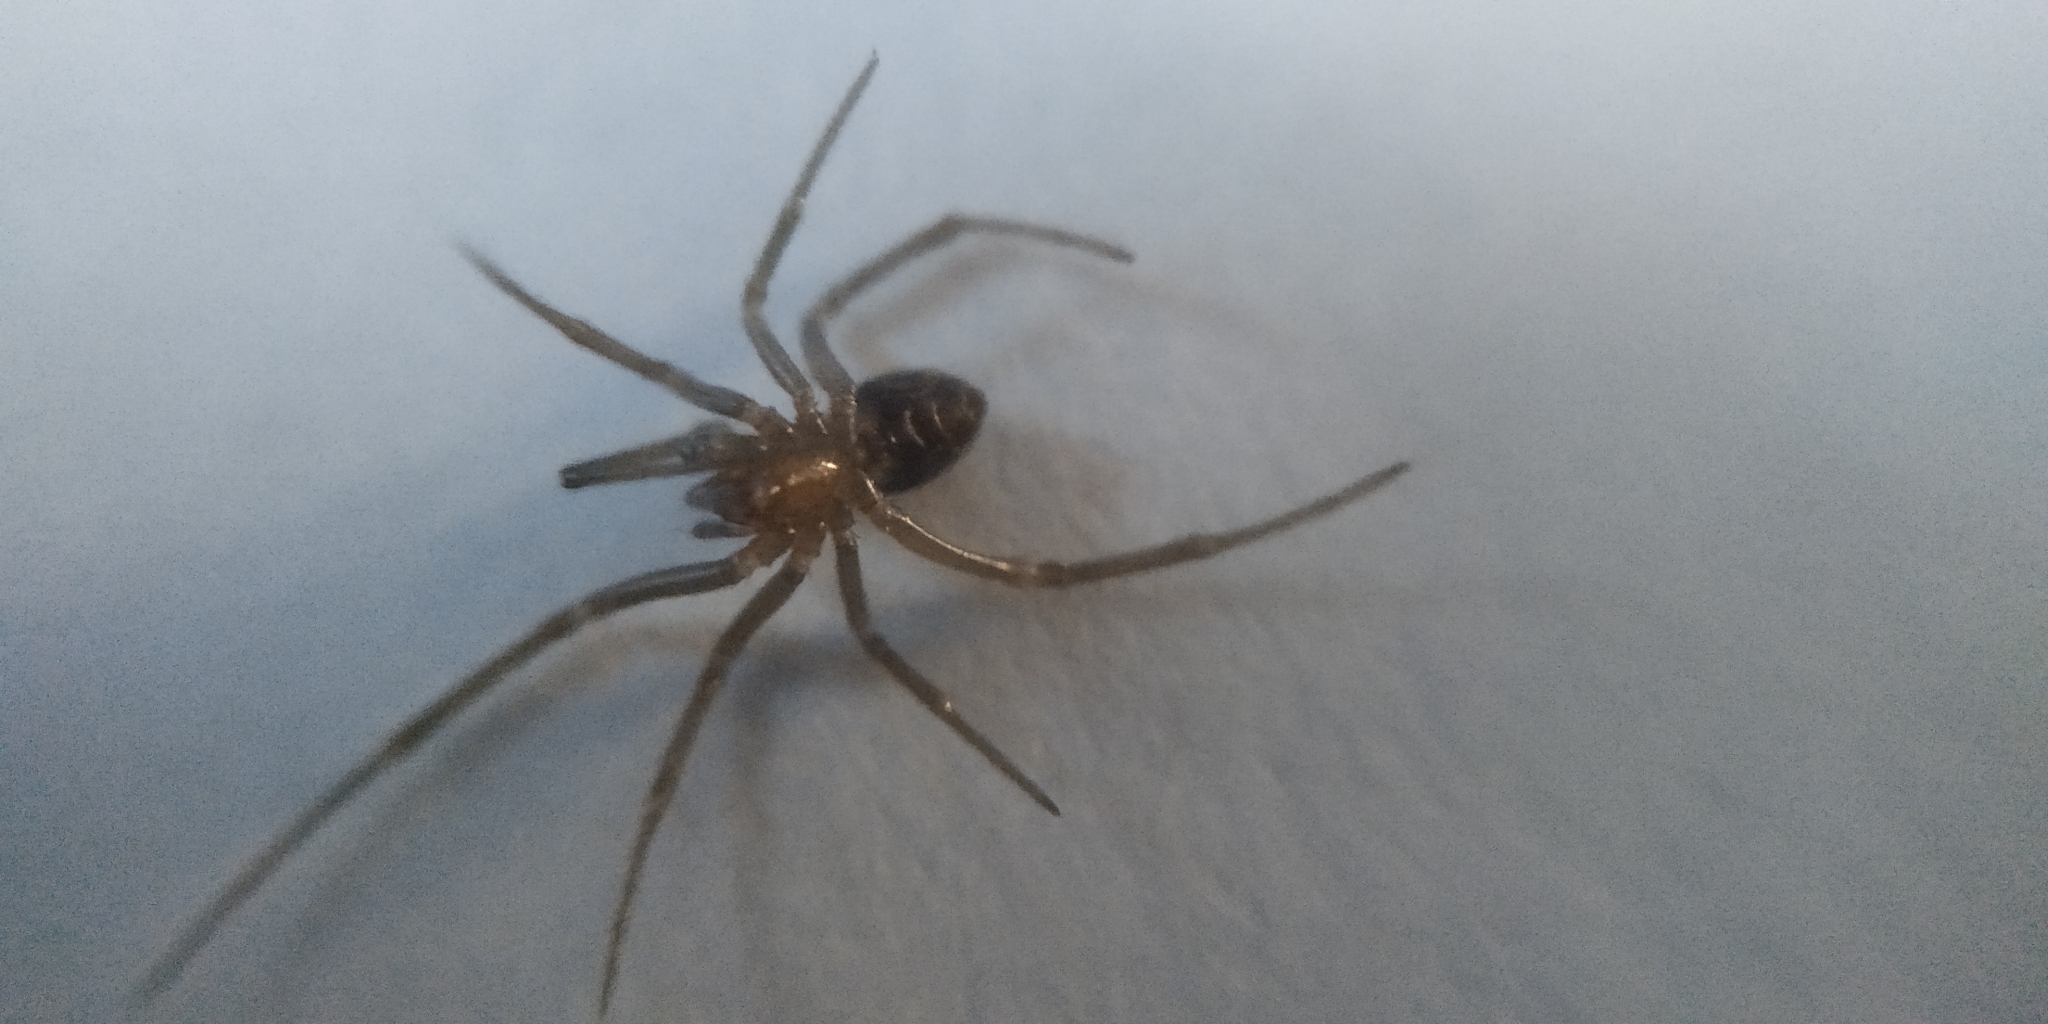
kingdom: Animalia
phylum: Arthropoda
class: Arachnida
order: Araneae
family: Theridiidae
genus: Steatoda
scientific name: Steatoda grossa
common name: False black widow
